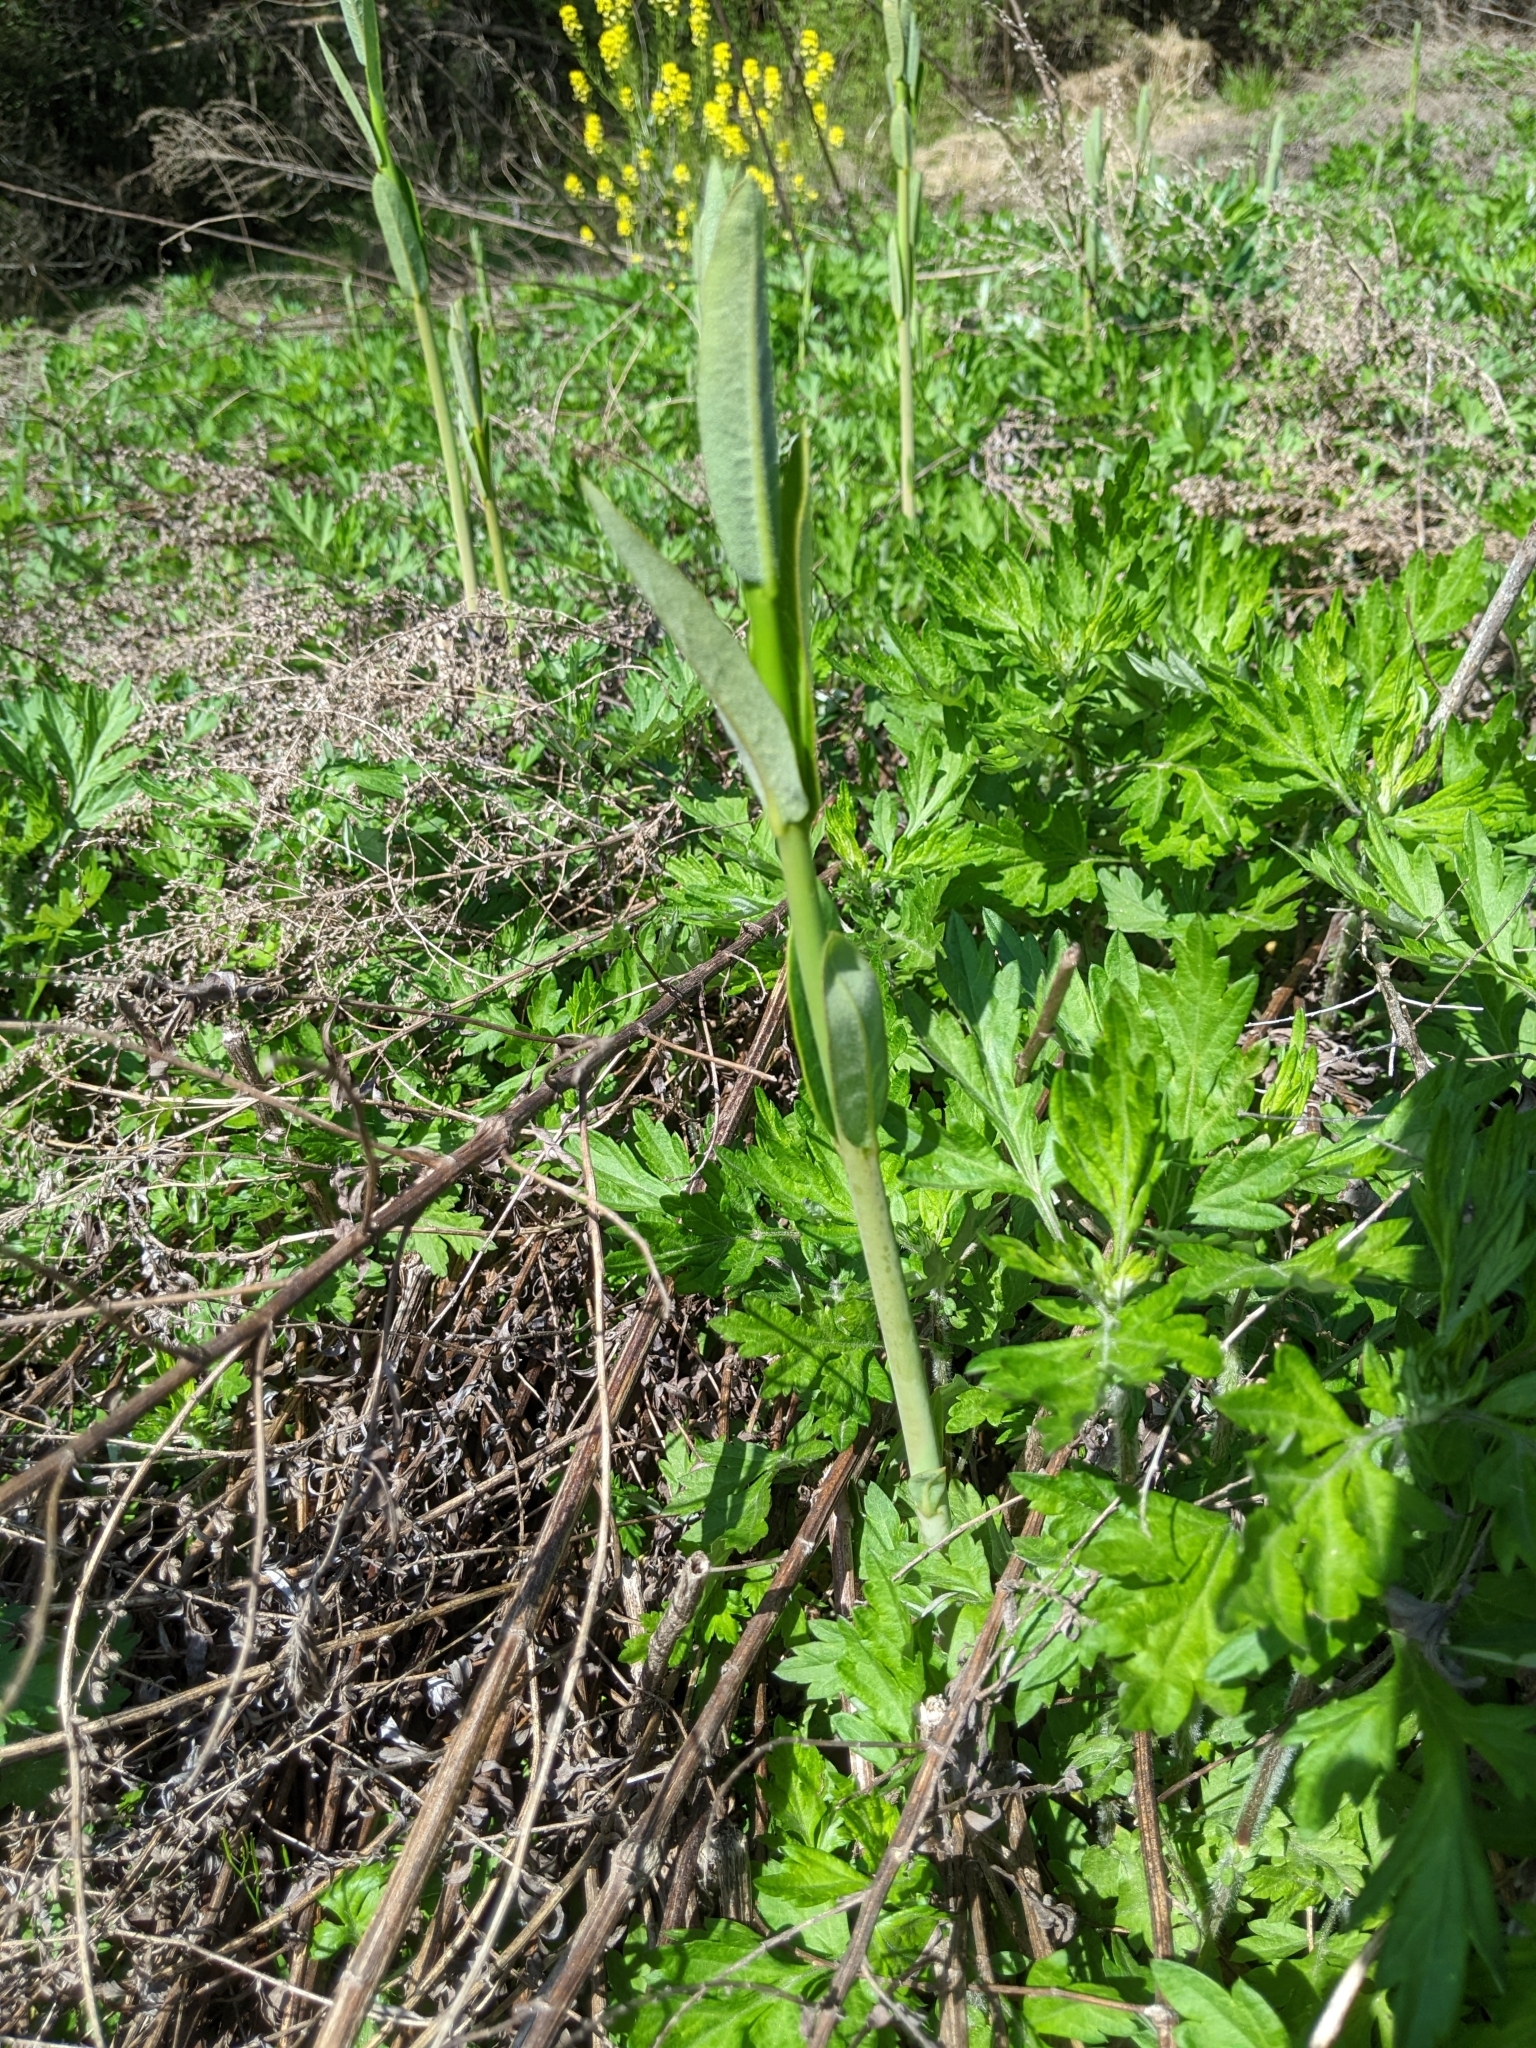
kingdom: Plantae
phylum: Tracheophyta
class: Magnoliopsida
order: Gentianales
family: Apocynaceae
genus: Apocynum
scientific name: Apocynum cannabinum
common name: Hemp dogbane
